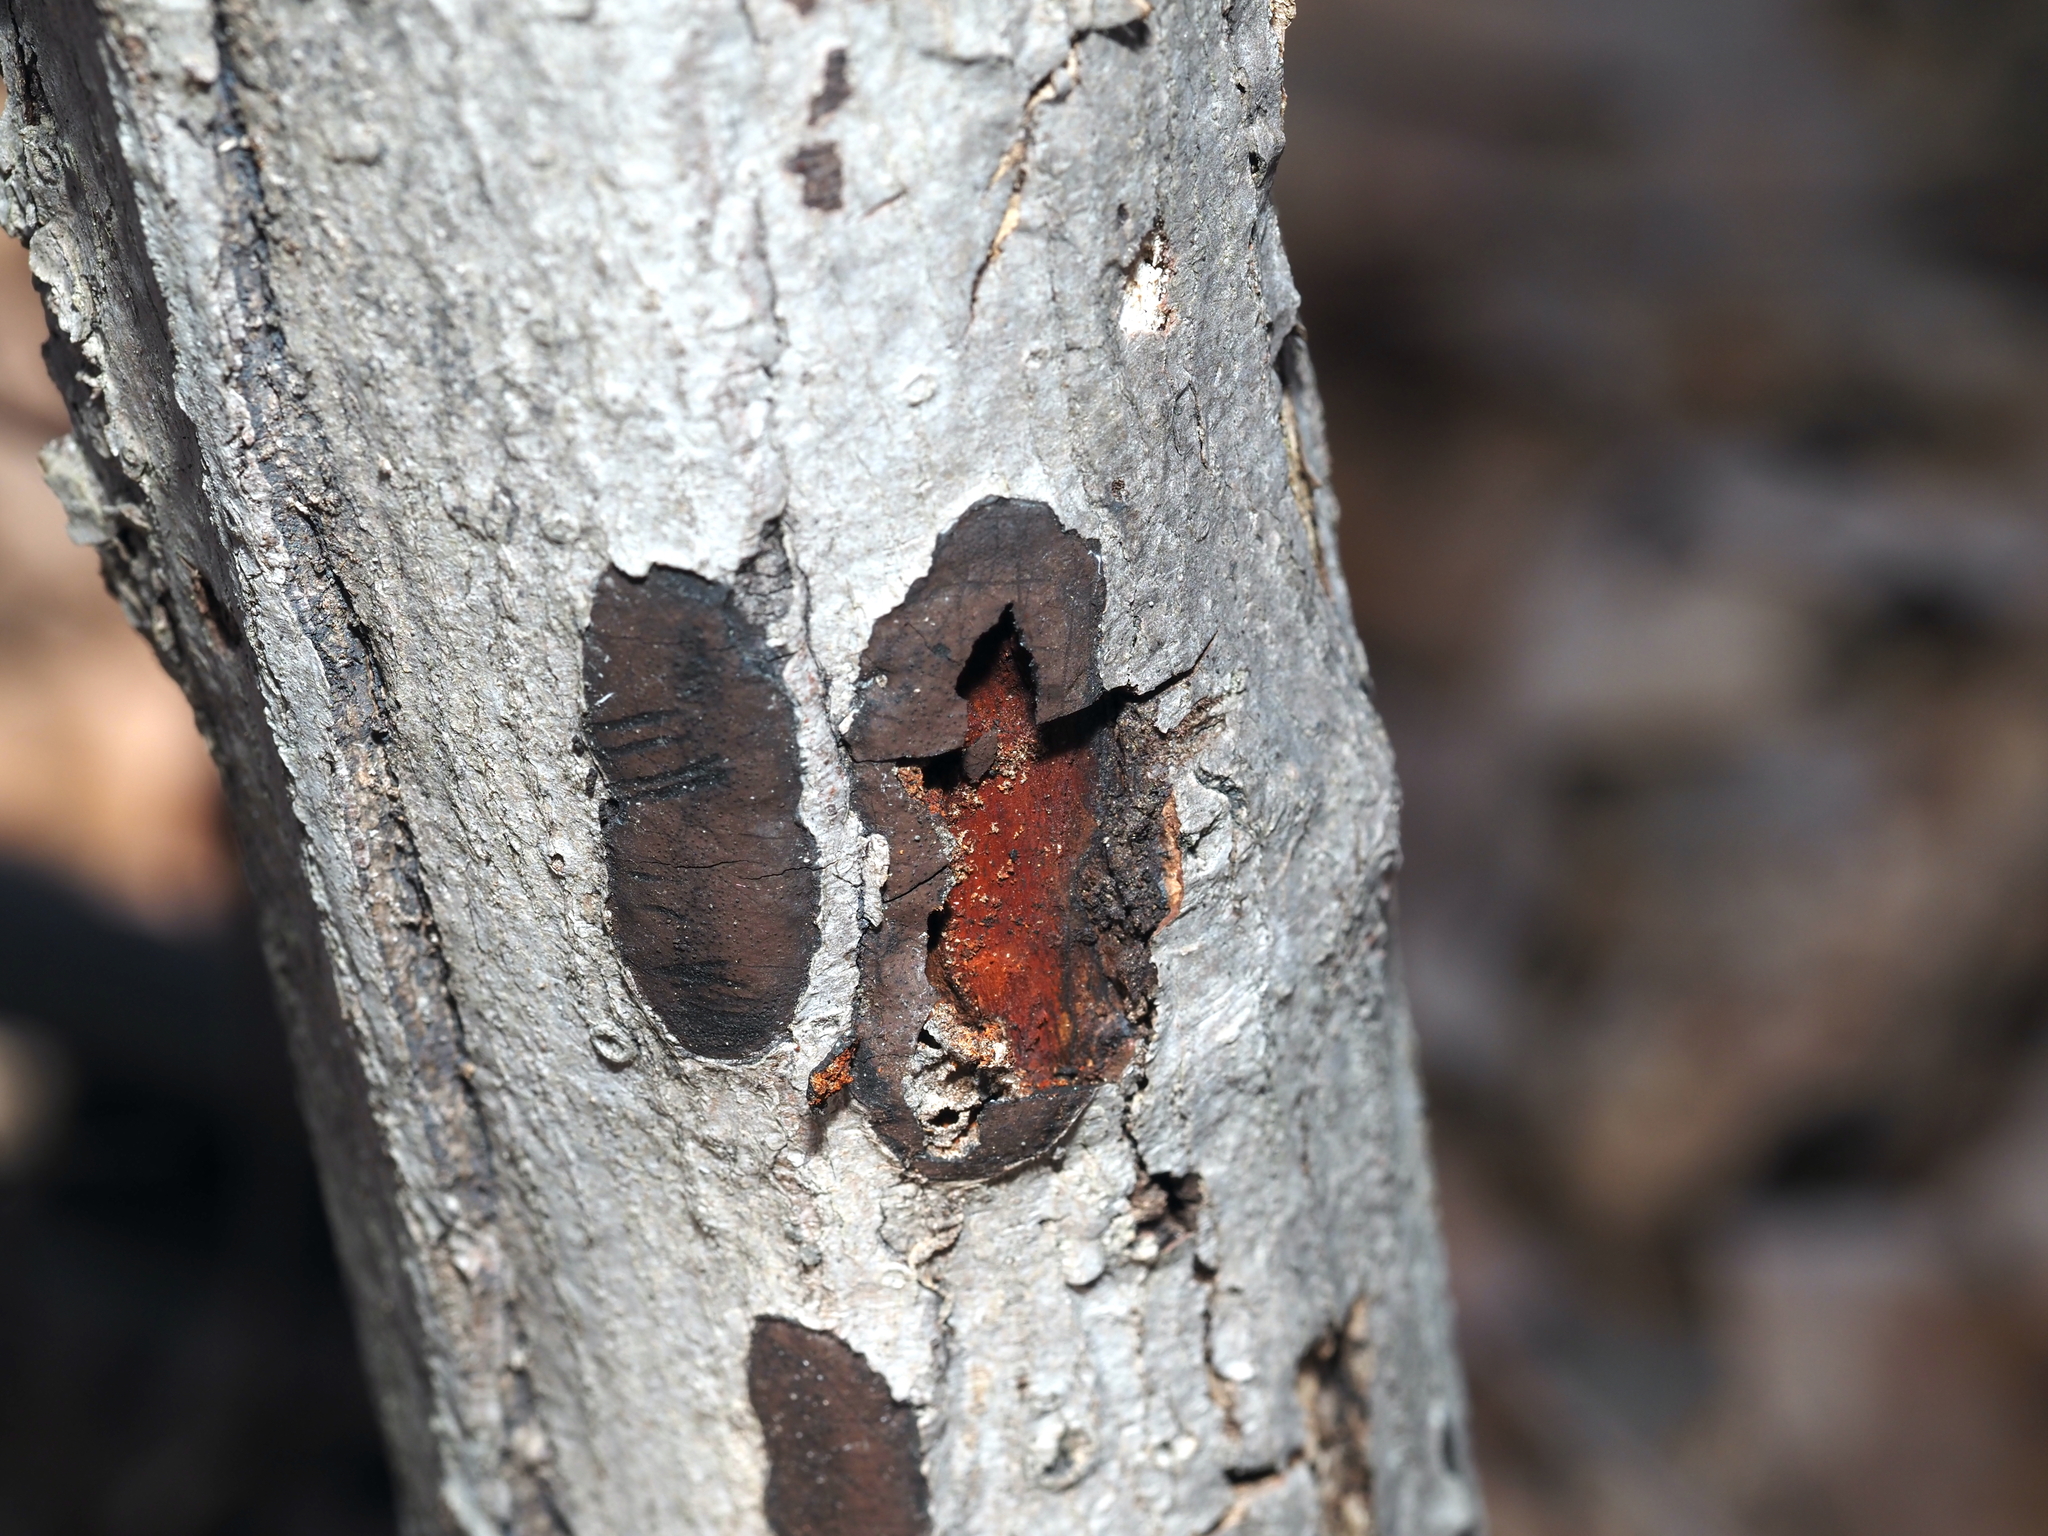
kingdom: Fungi
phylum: Ascomycota
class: Sordariomycetes
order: Xylariales
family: Graphostromataceae
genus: Camillea
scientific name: Camillea tinctor
